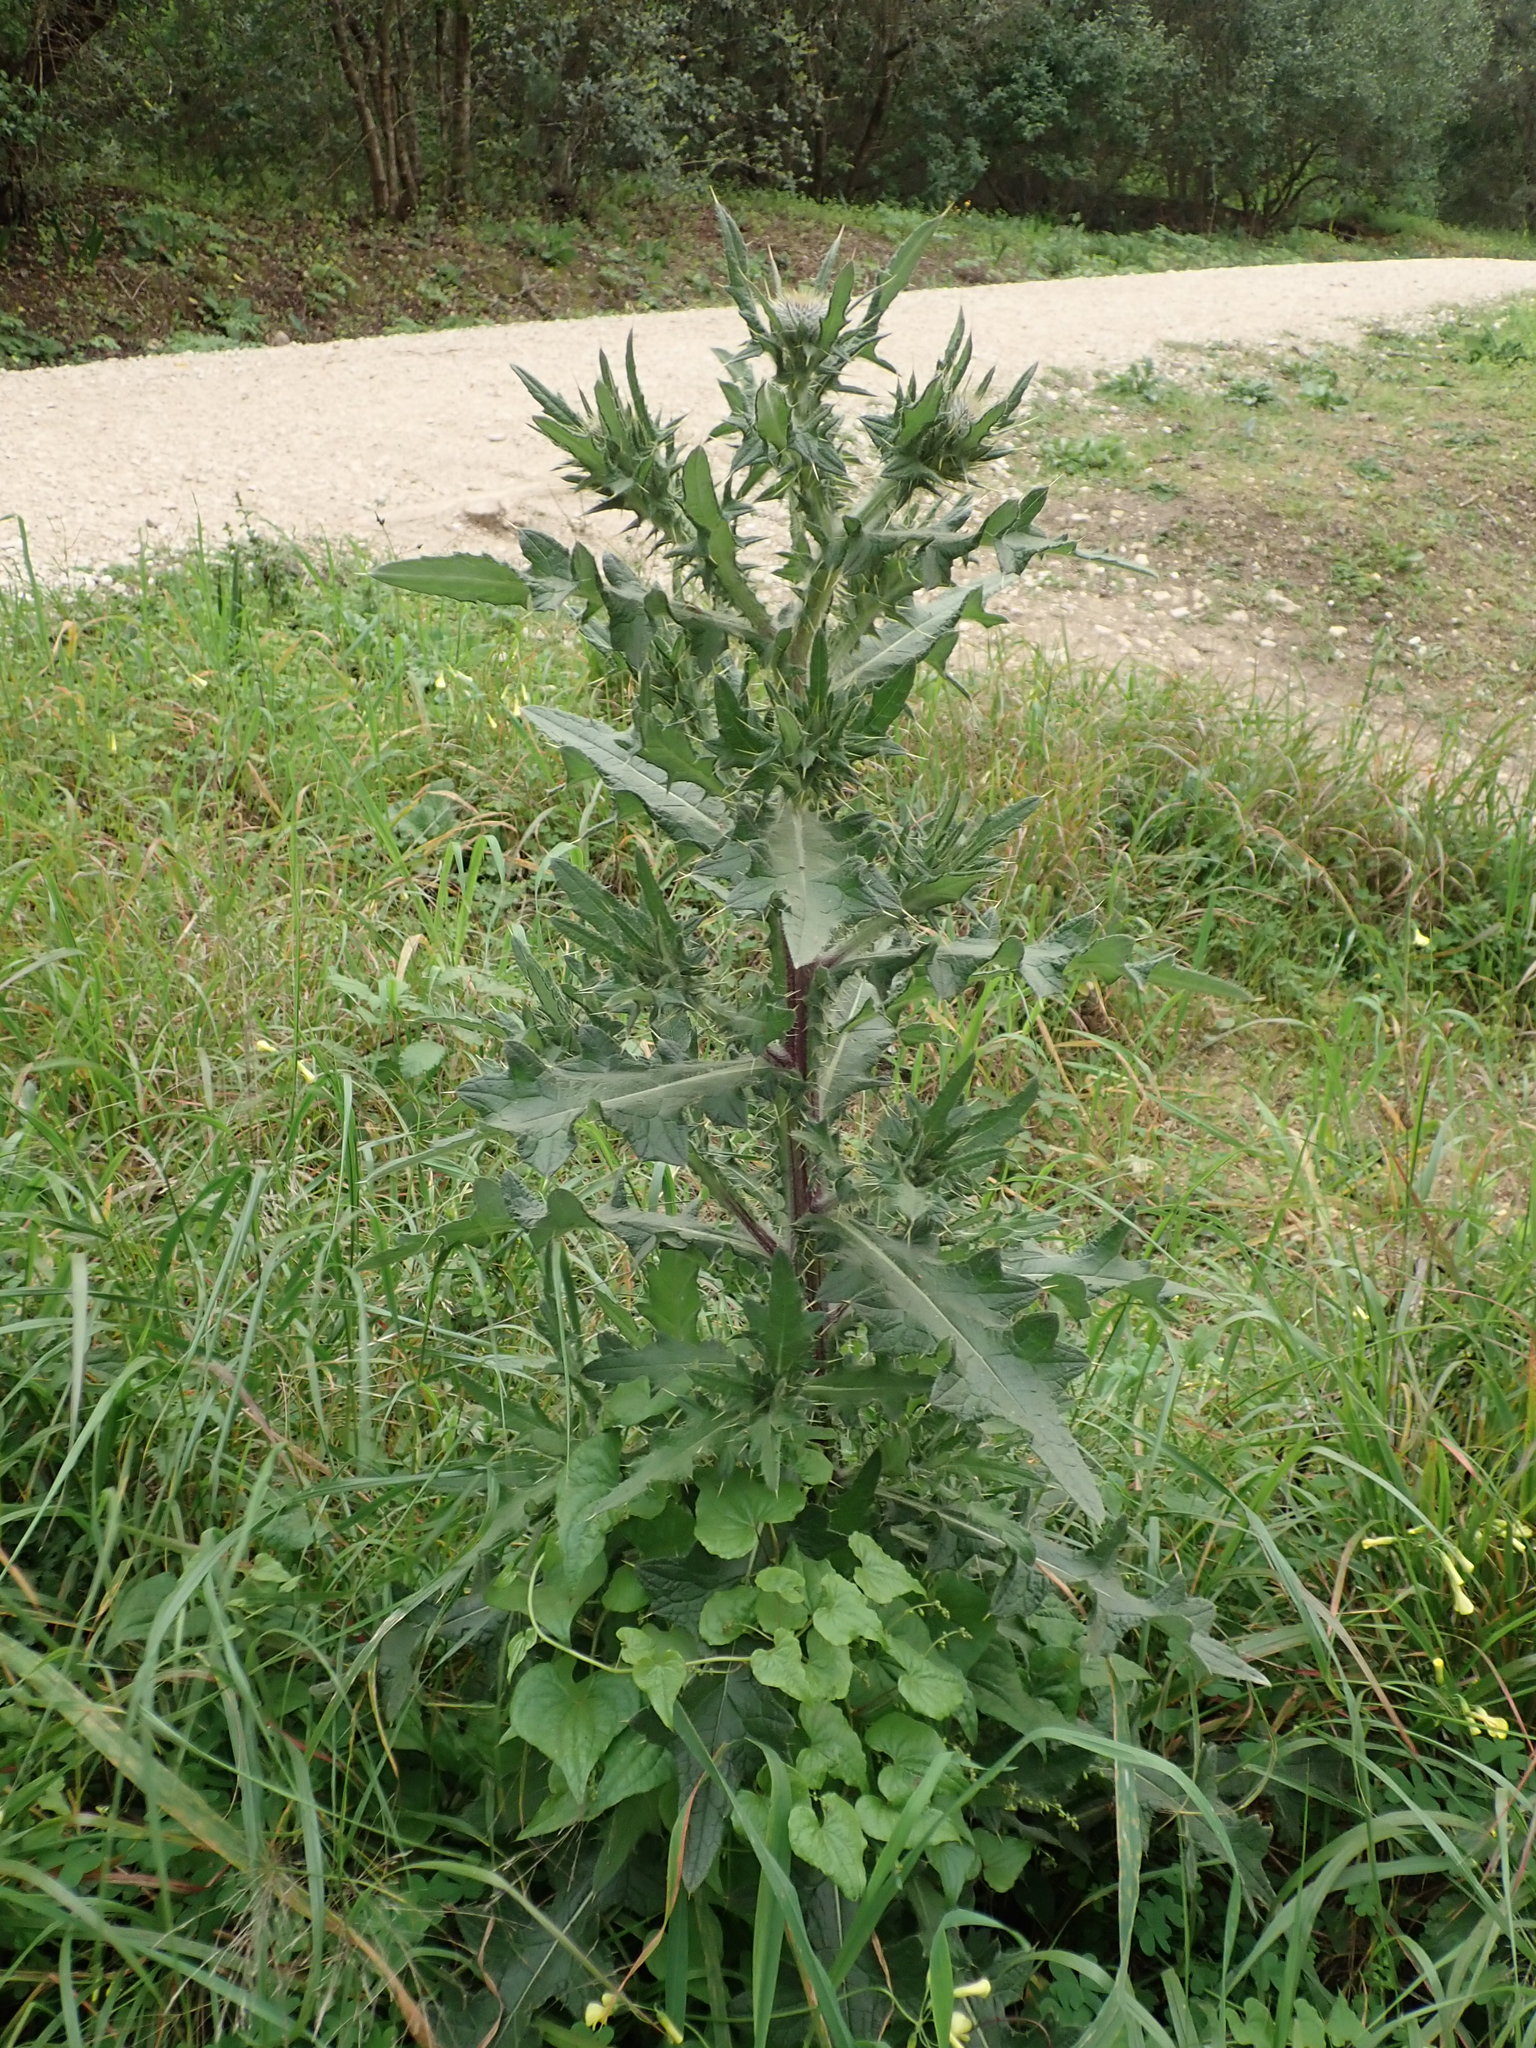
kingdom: Plantae
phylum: Tracheophyta
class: Magnoliopsida
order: Asterales
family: Asteraceae
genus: Cirsium
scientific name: Cirsium vulgare
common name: Bull thistle
